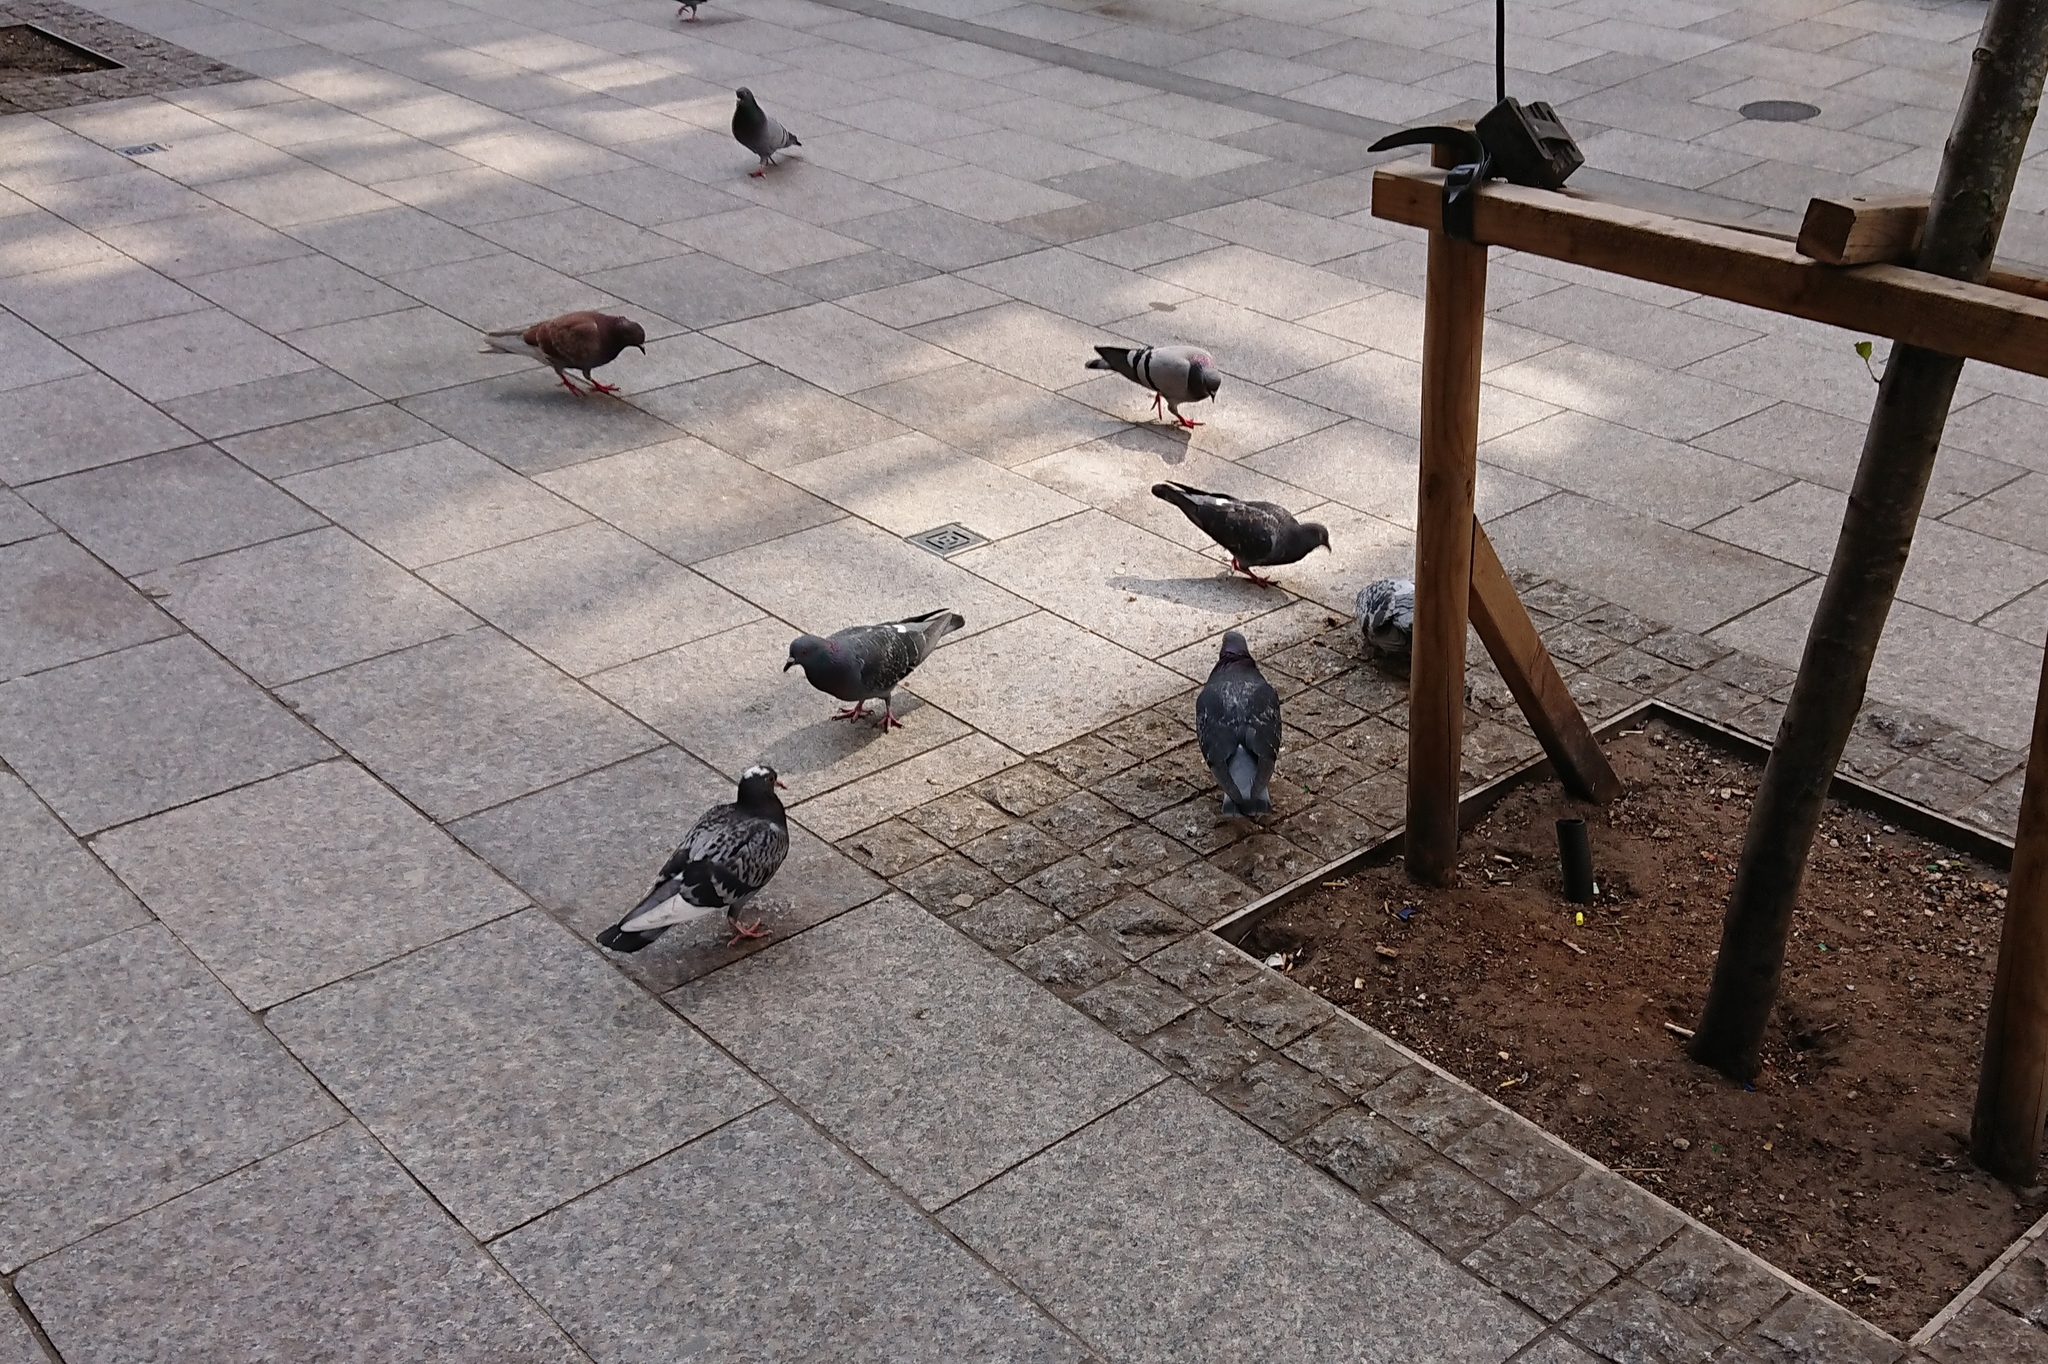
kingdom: Animalia
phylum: Chordata
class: Aves
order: Columbiformes
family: Columbidae
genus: Columba
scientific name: Columba livia
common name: Rock pigeon
